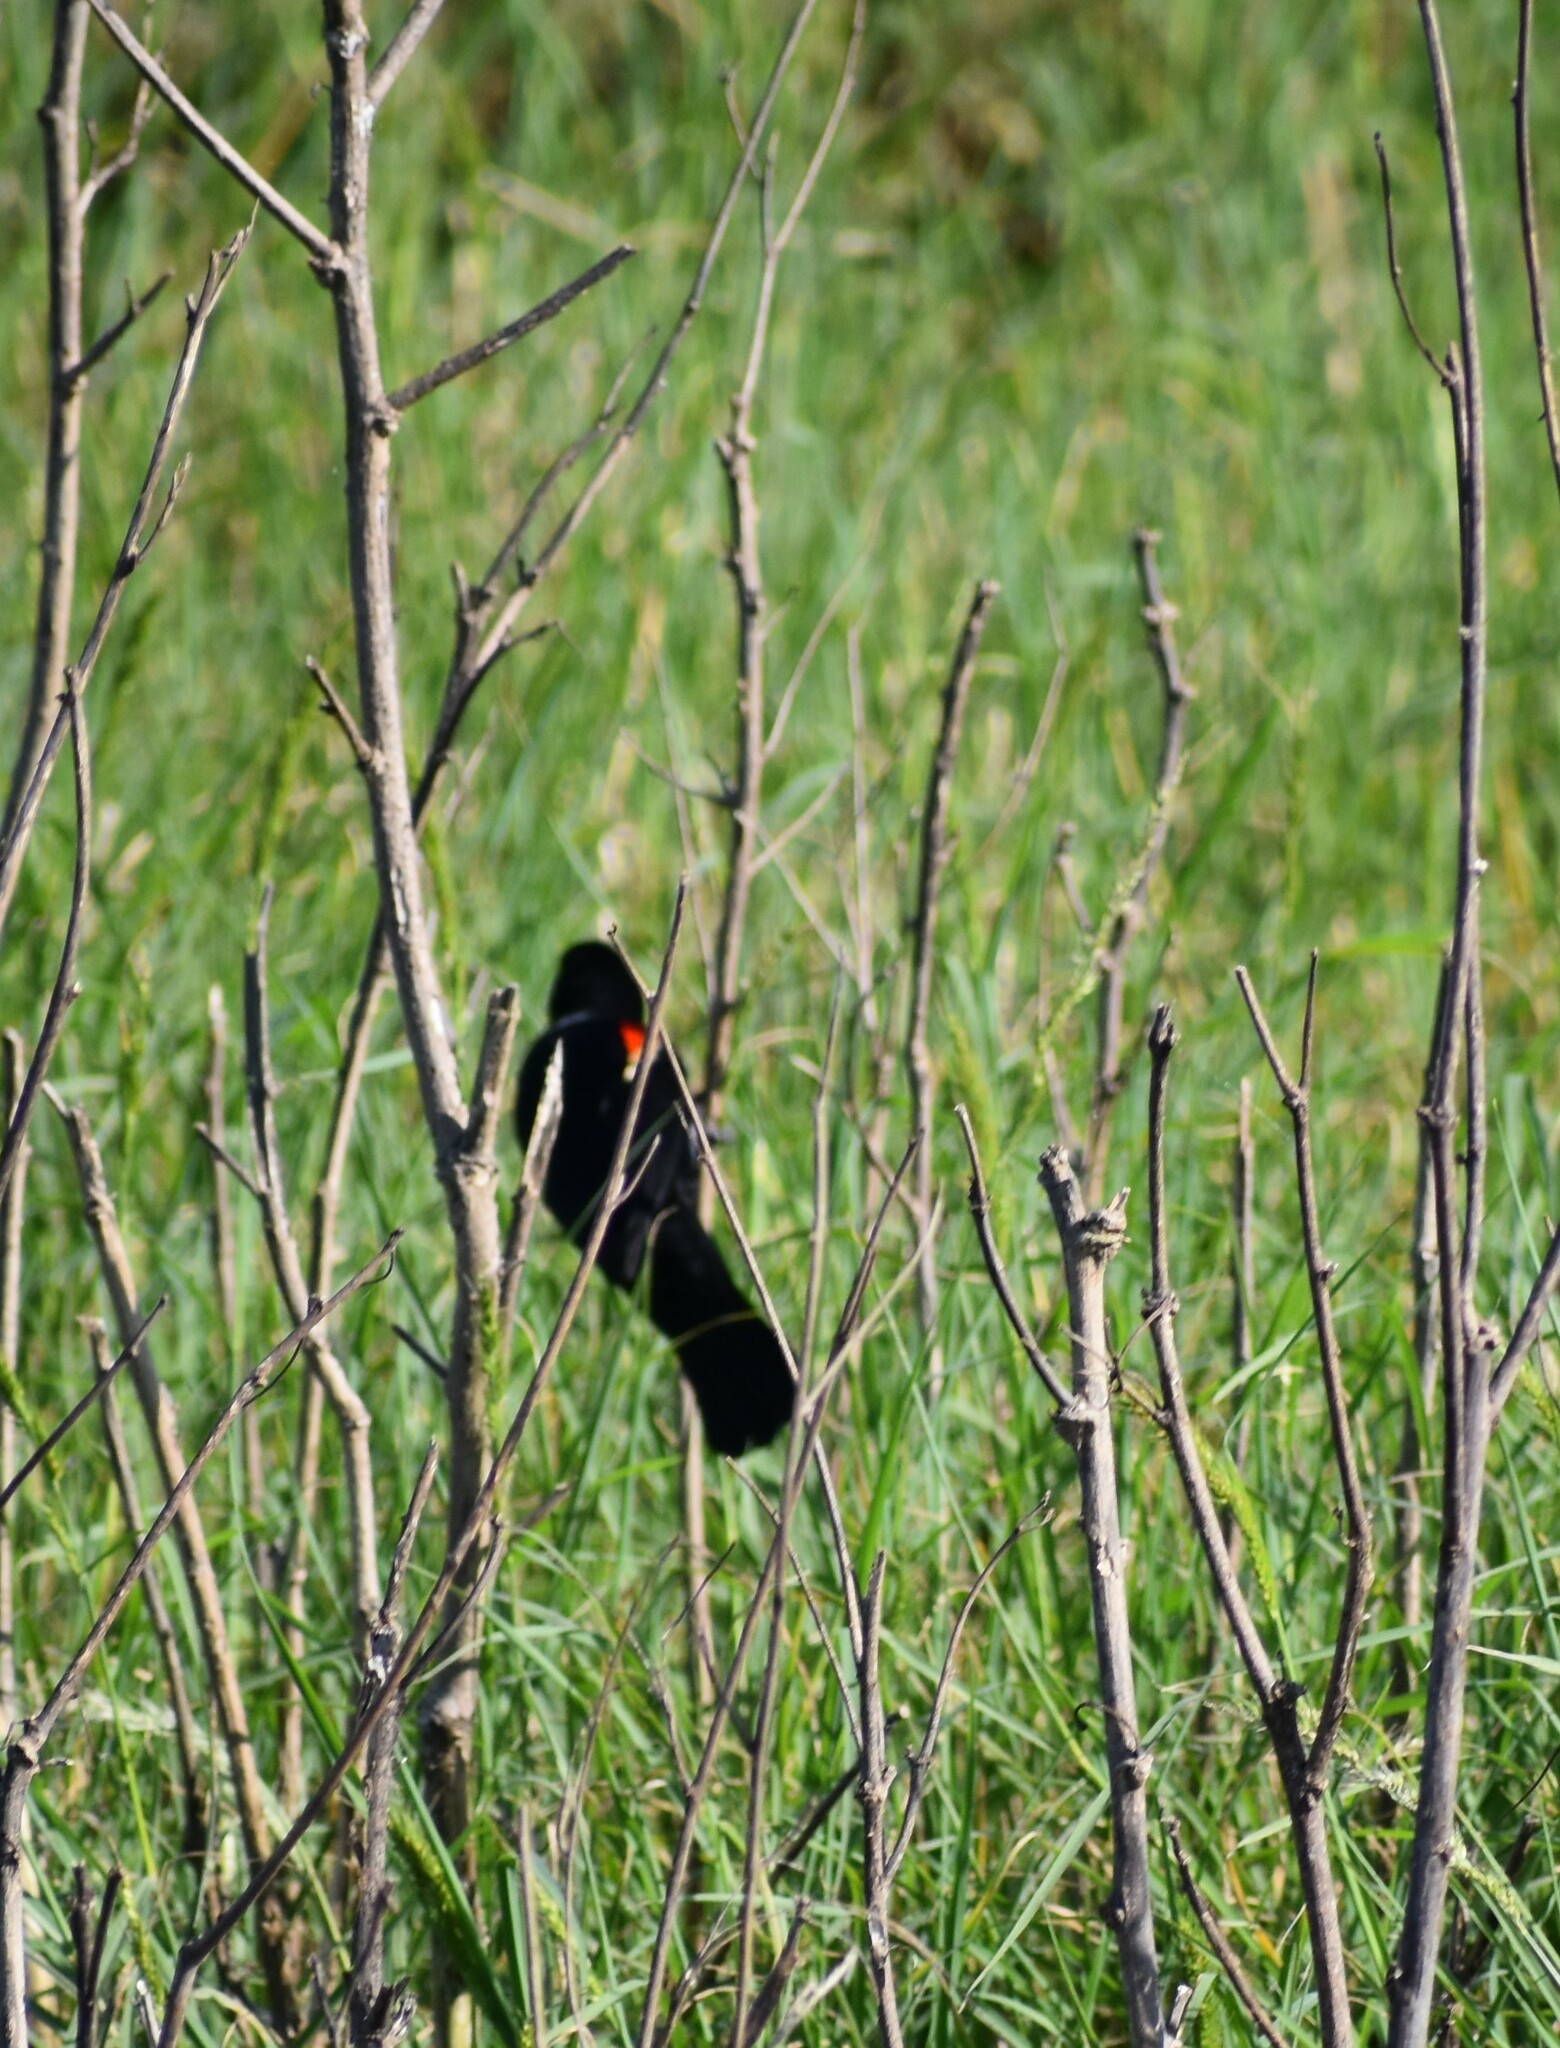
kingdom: Animalia
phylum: Chordata
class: Aves
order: Passeriformes
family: Icteridae
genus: Agelaius
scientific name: Agelaius phoeniceus
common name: Red-winged blackbird
